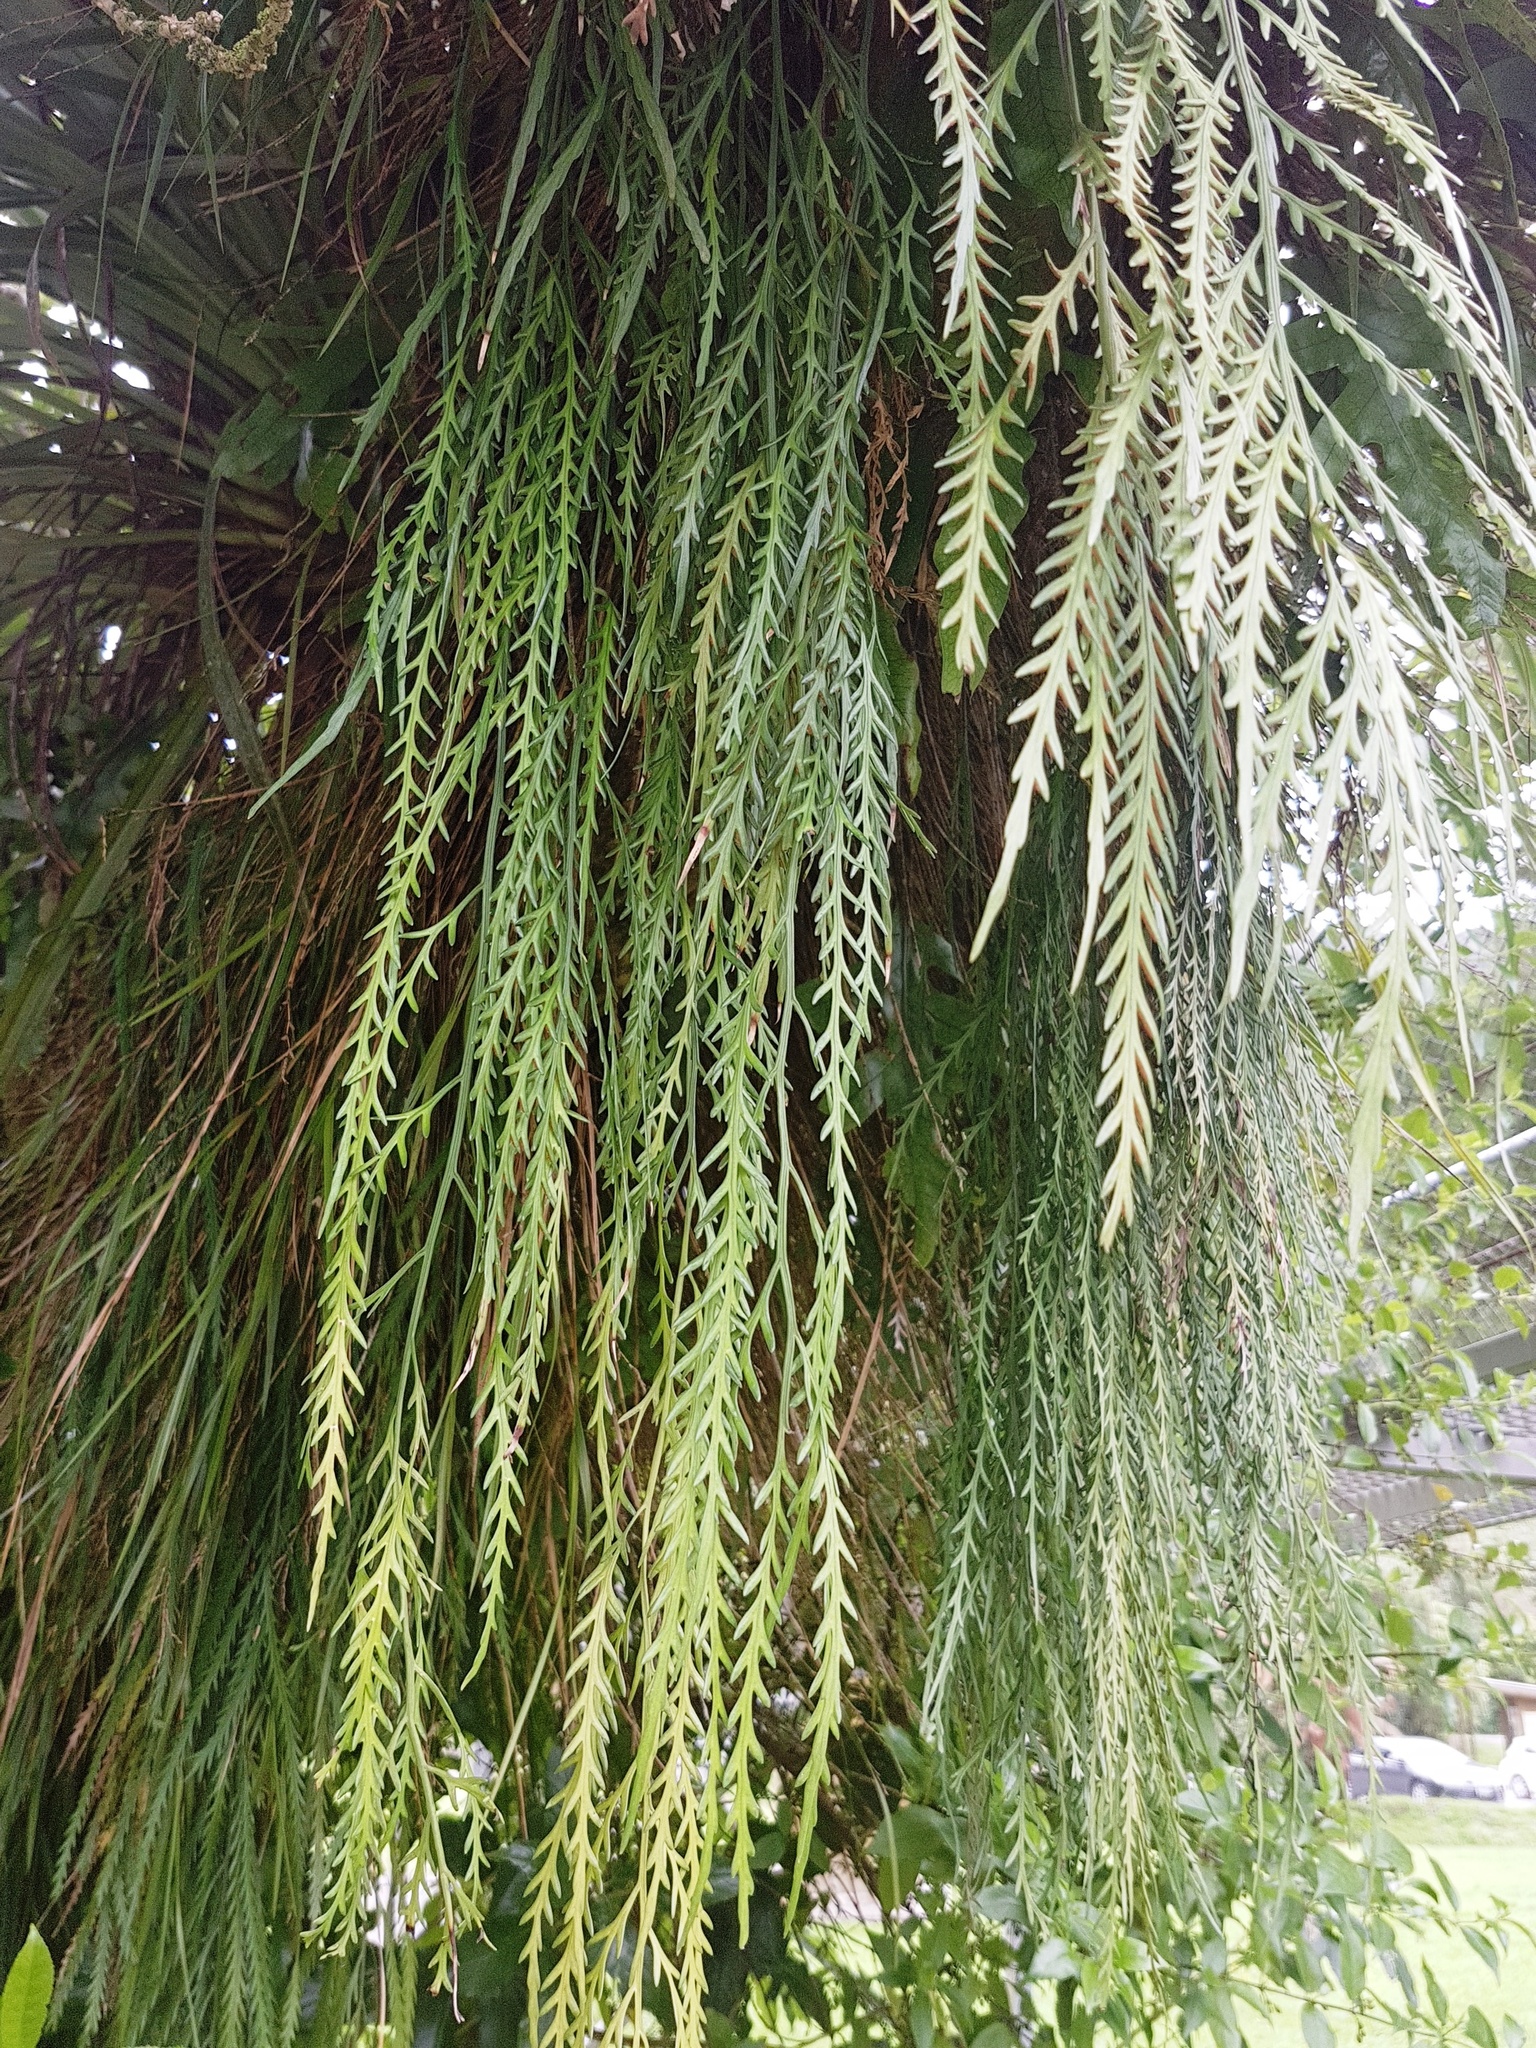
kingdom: Plantae
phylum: Tracheophyta
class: Polypodiopsida
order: Polypodiales
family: Aspleniaceae
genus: Asplenium
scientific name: Asplenium flaccidum
